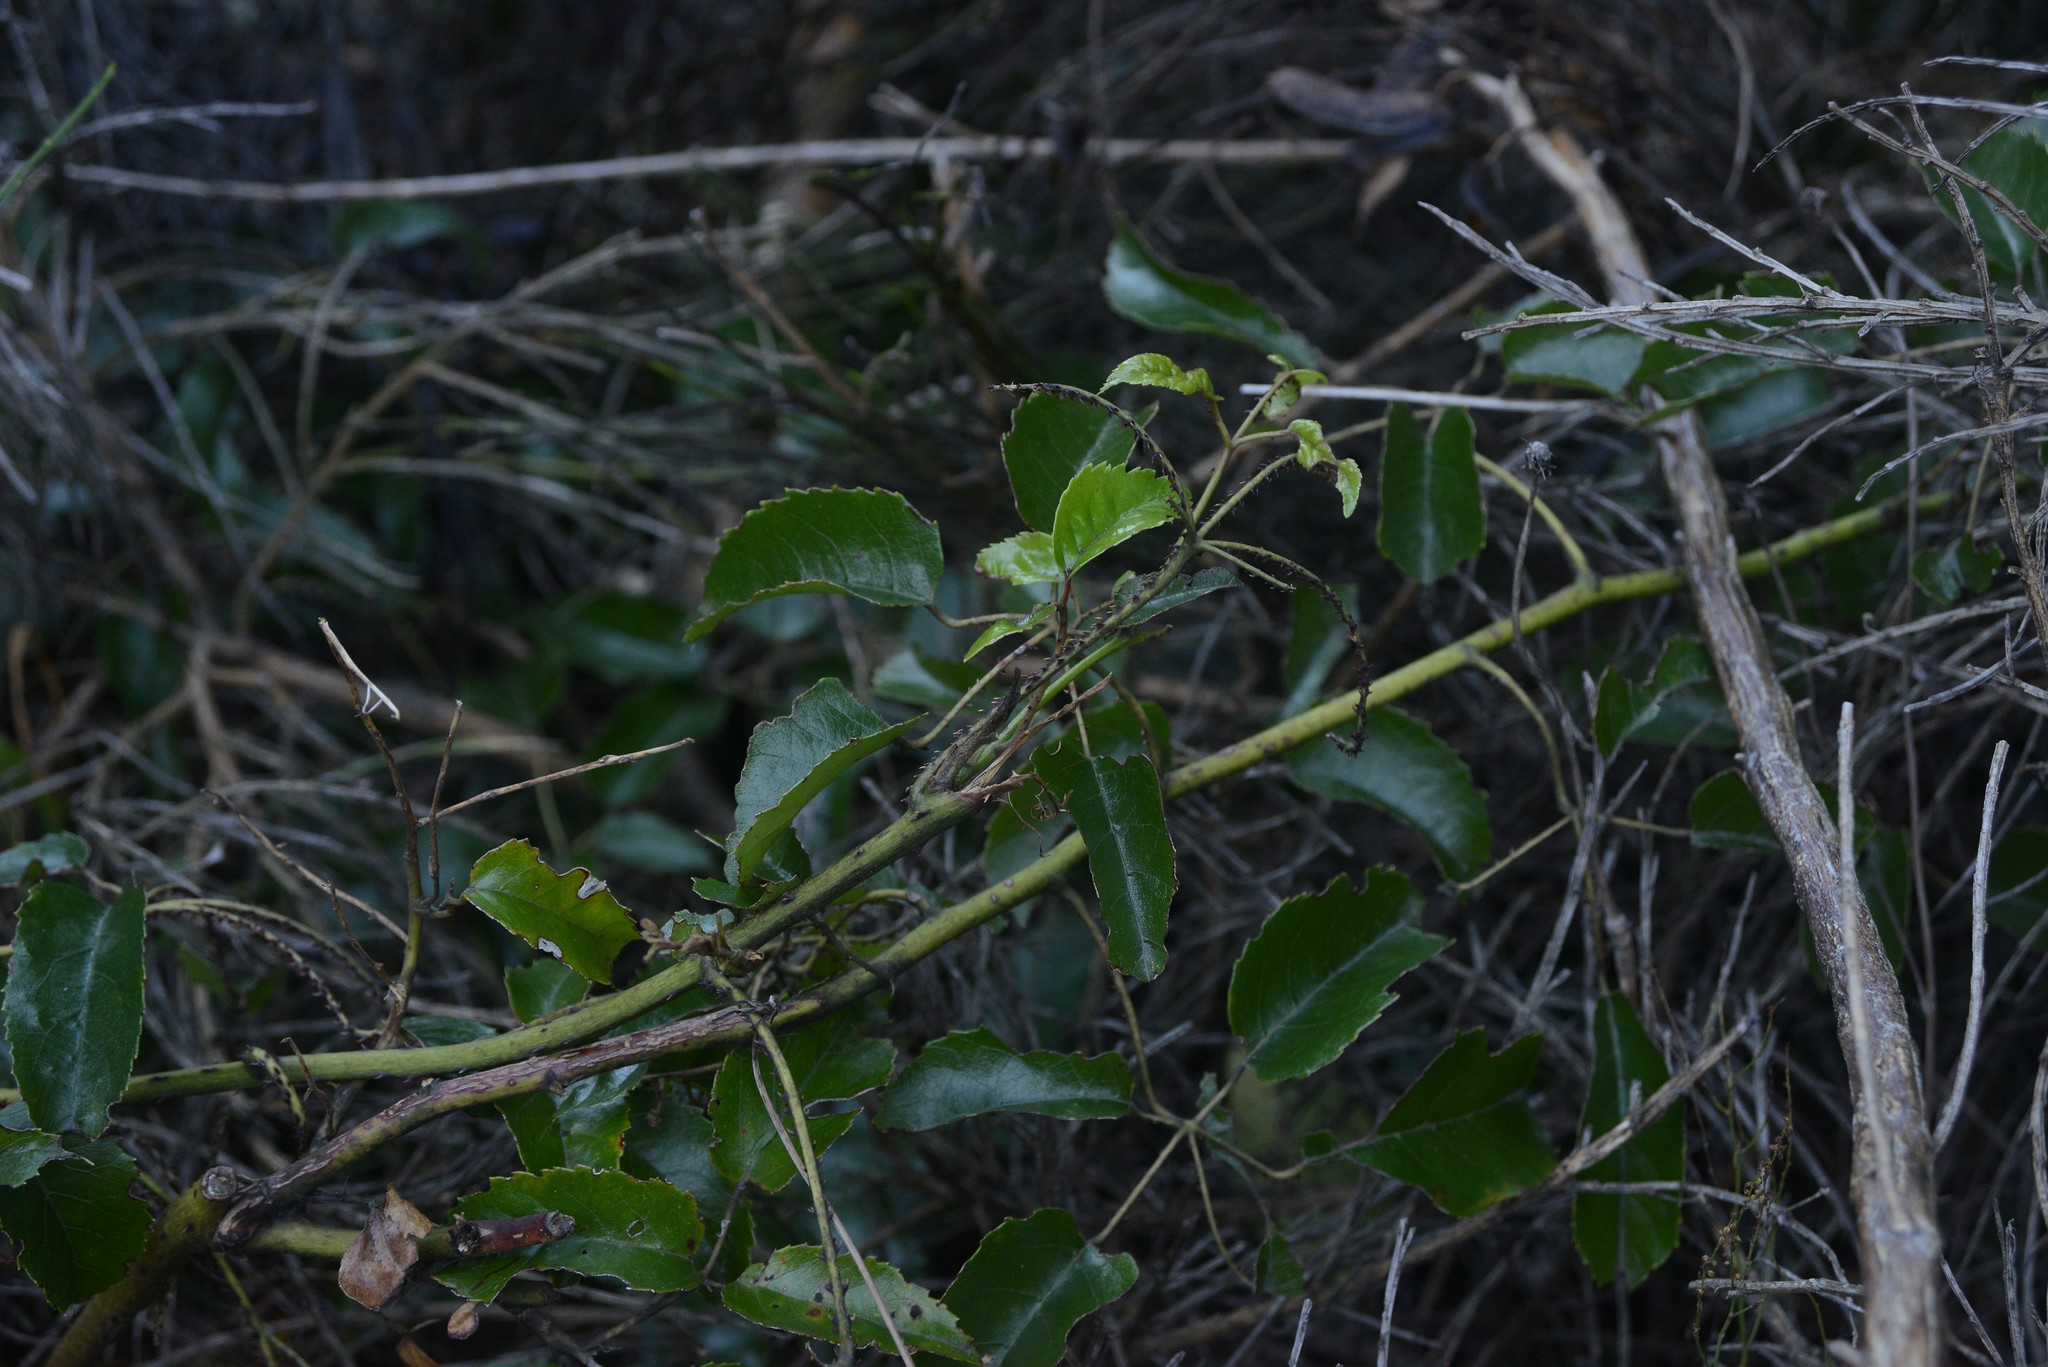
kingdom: Plantae
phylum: Tracheophyta
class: Magnoliopsida
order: Rosales
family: Rosaceae
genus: Rubus
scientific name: Rubus cissoides
